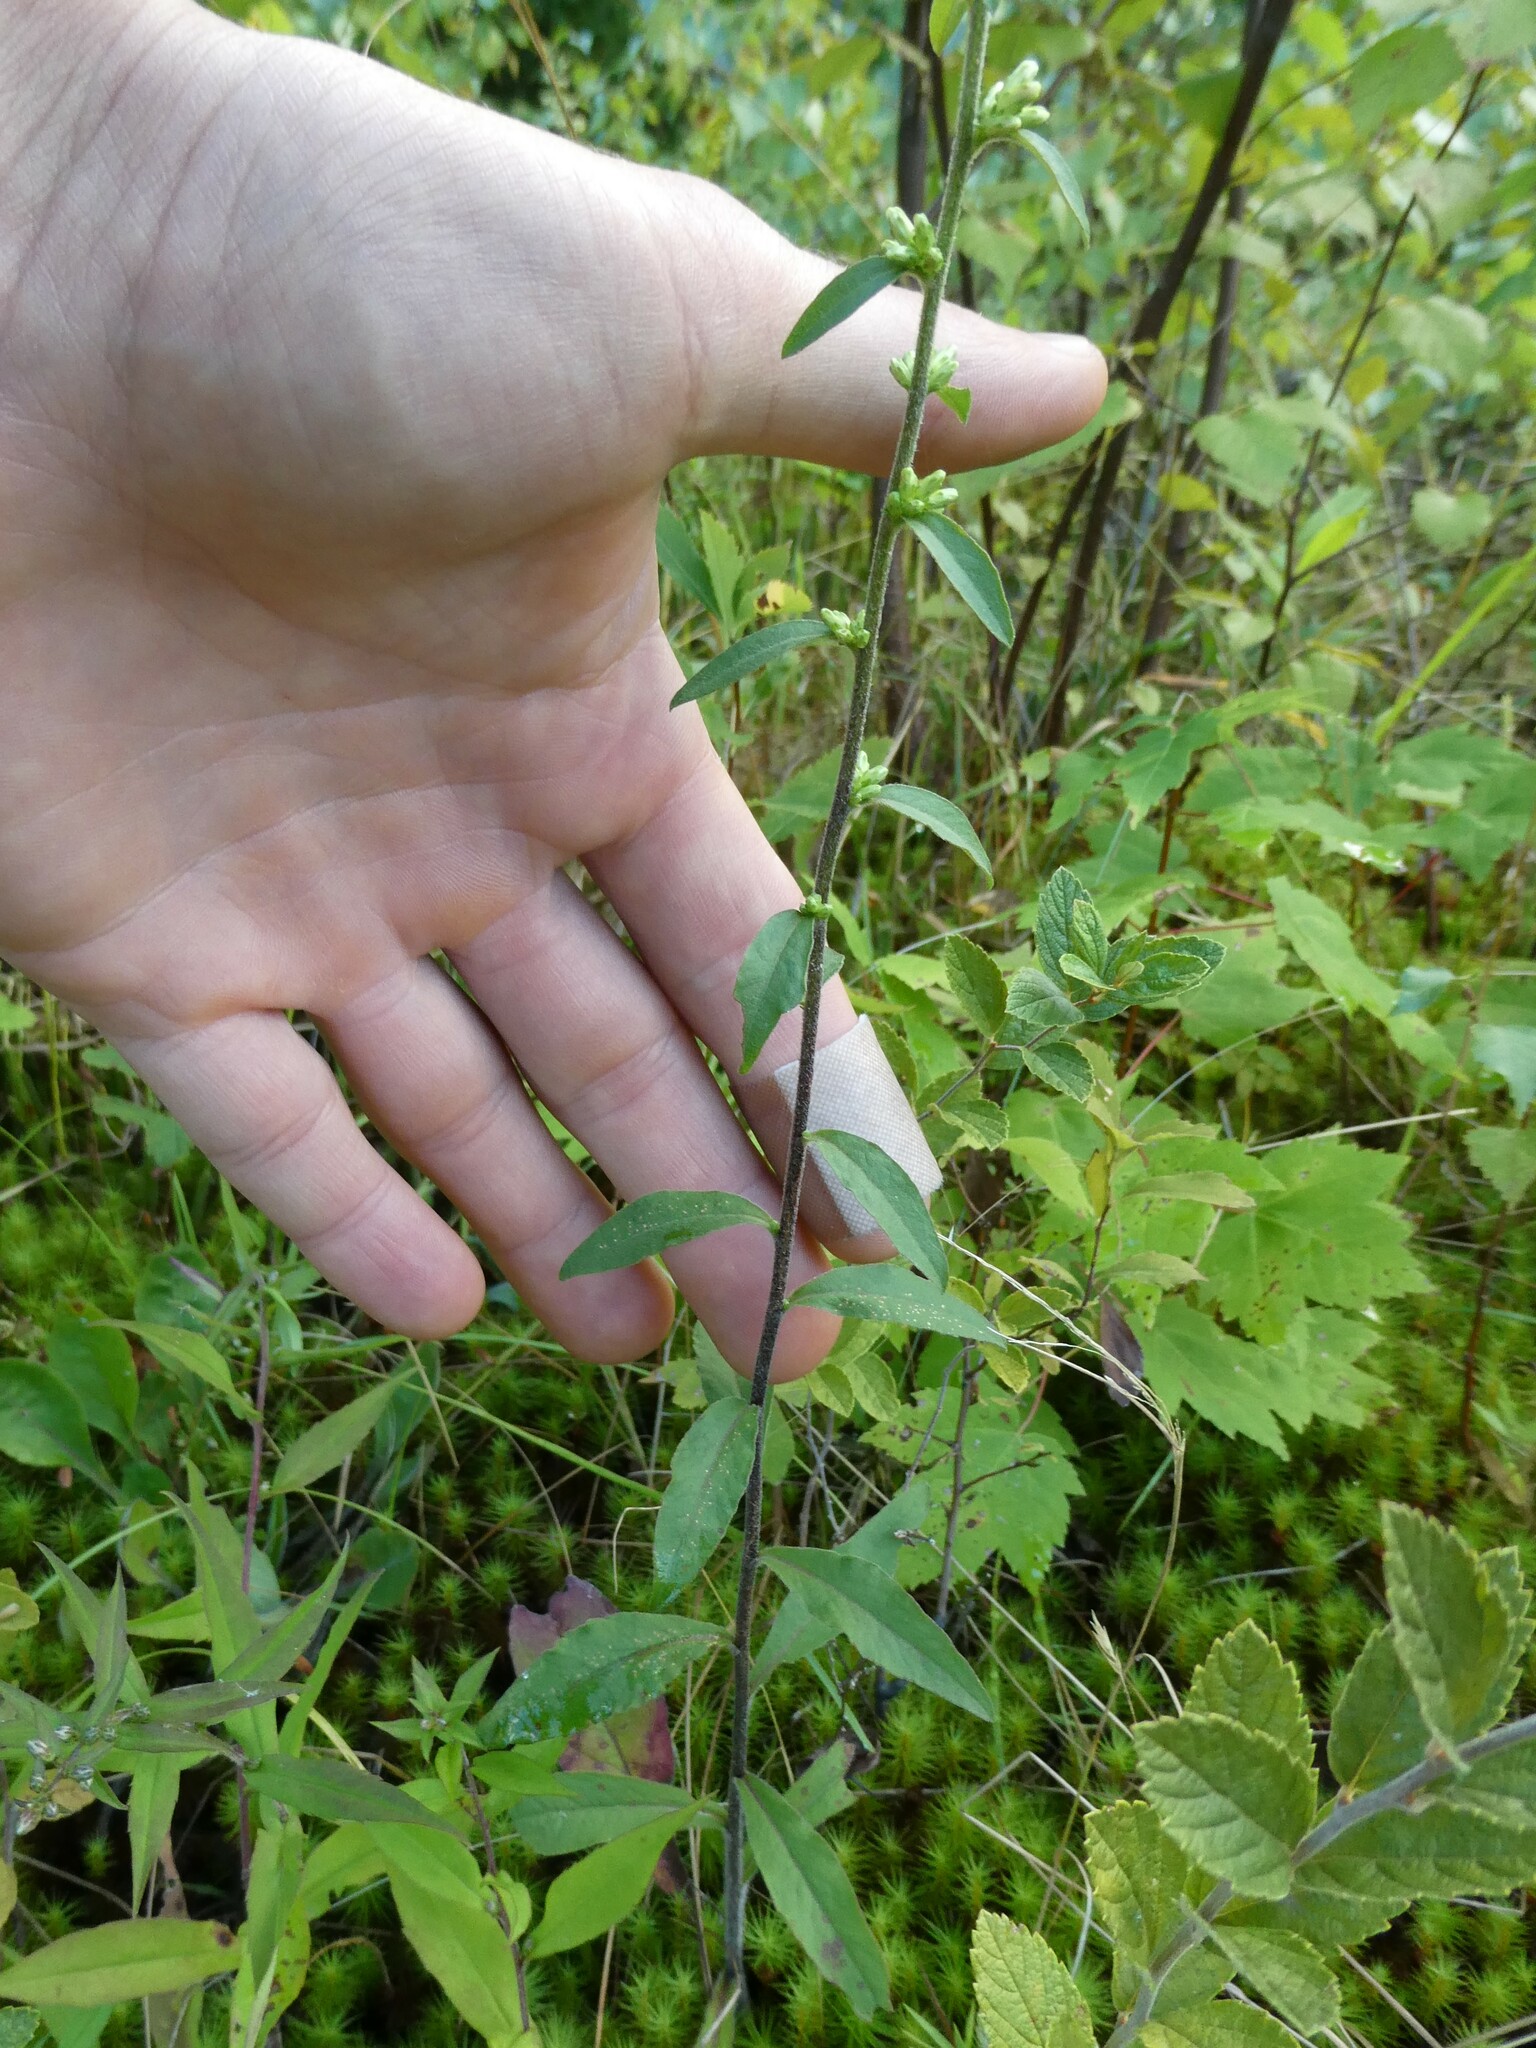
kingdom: Plantae
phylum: Tracheophyta
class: Magnoliopsida
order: Asterales
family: Asteraceae
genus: Solidago
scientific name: Solidago bicolor
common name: Silverrod
